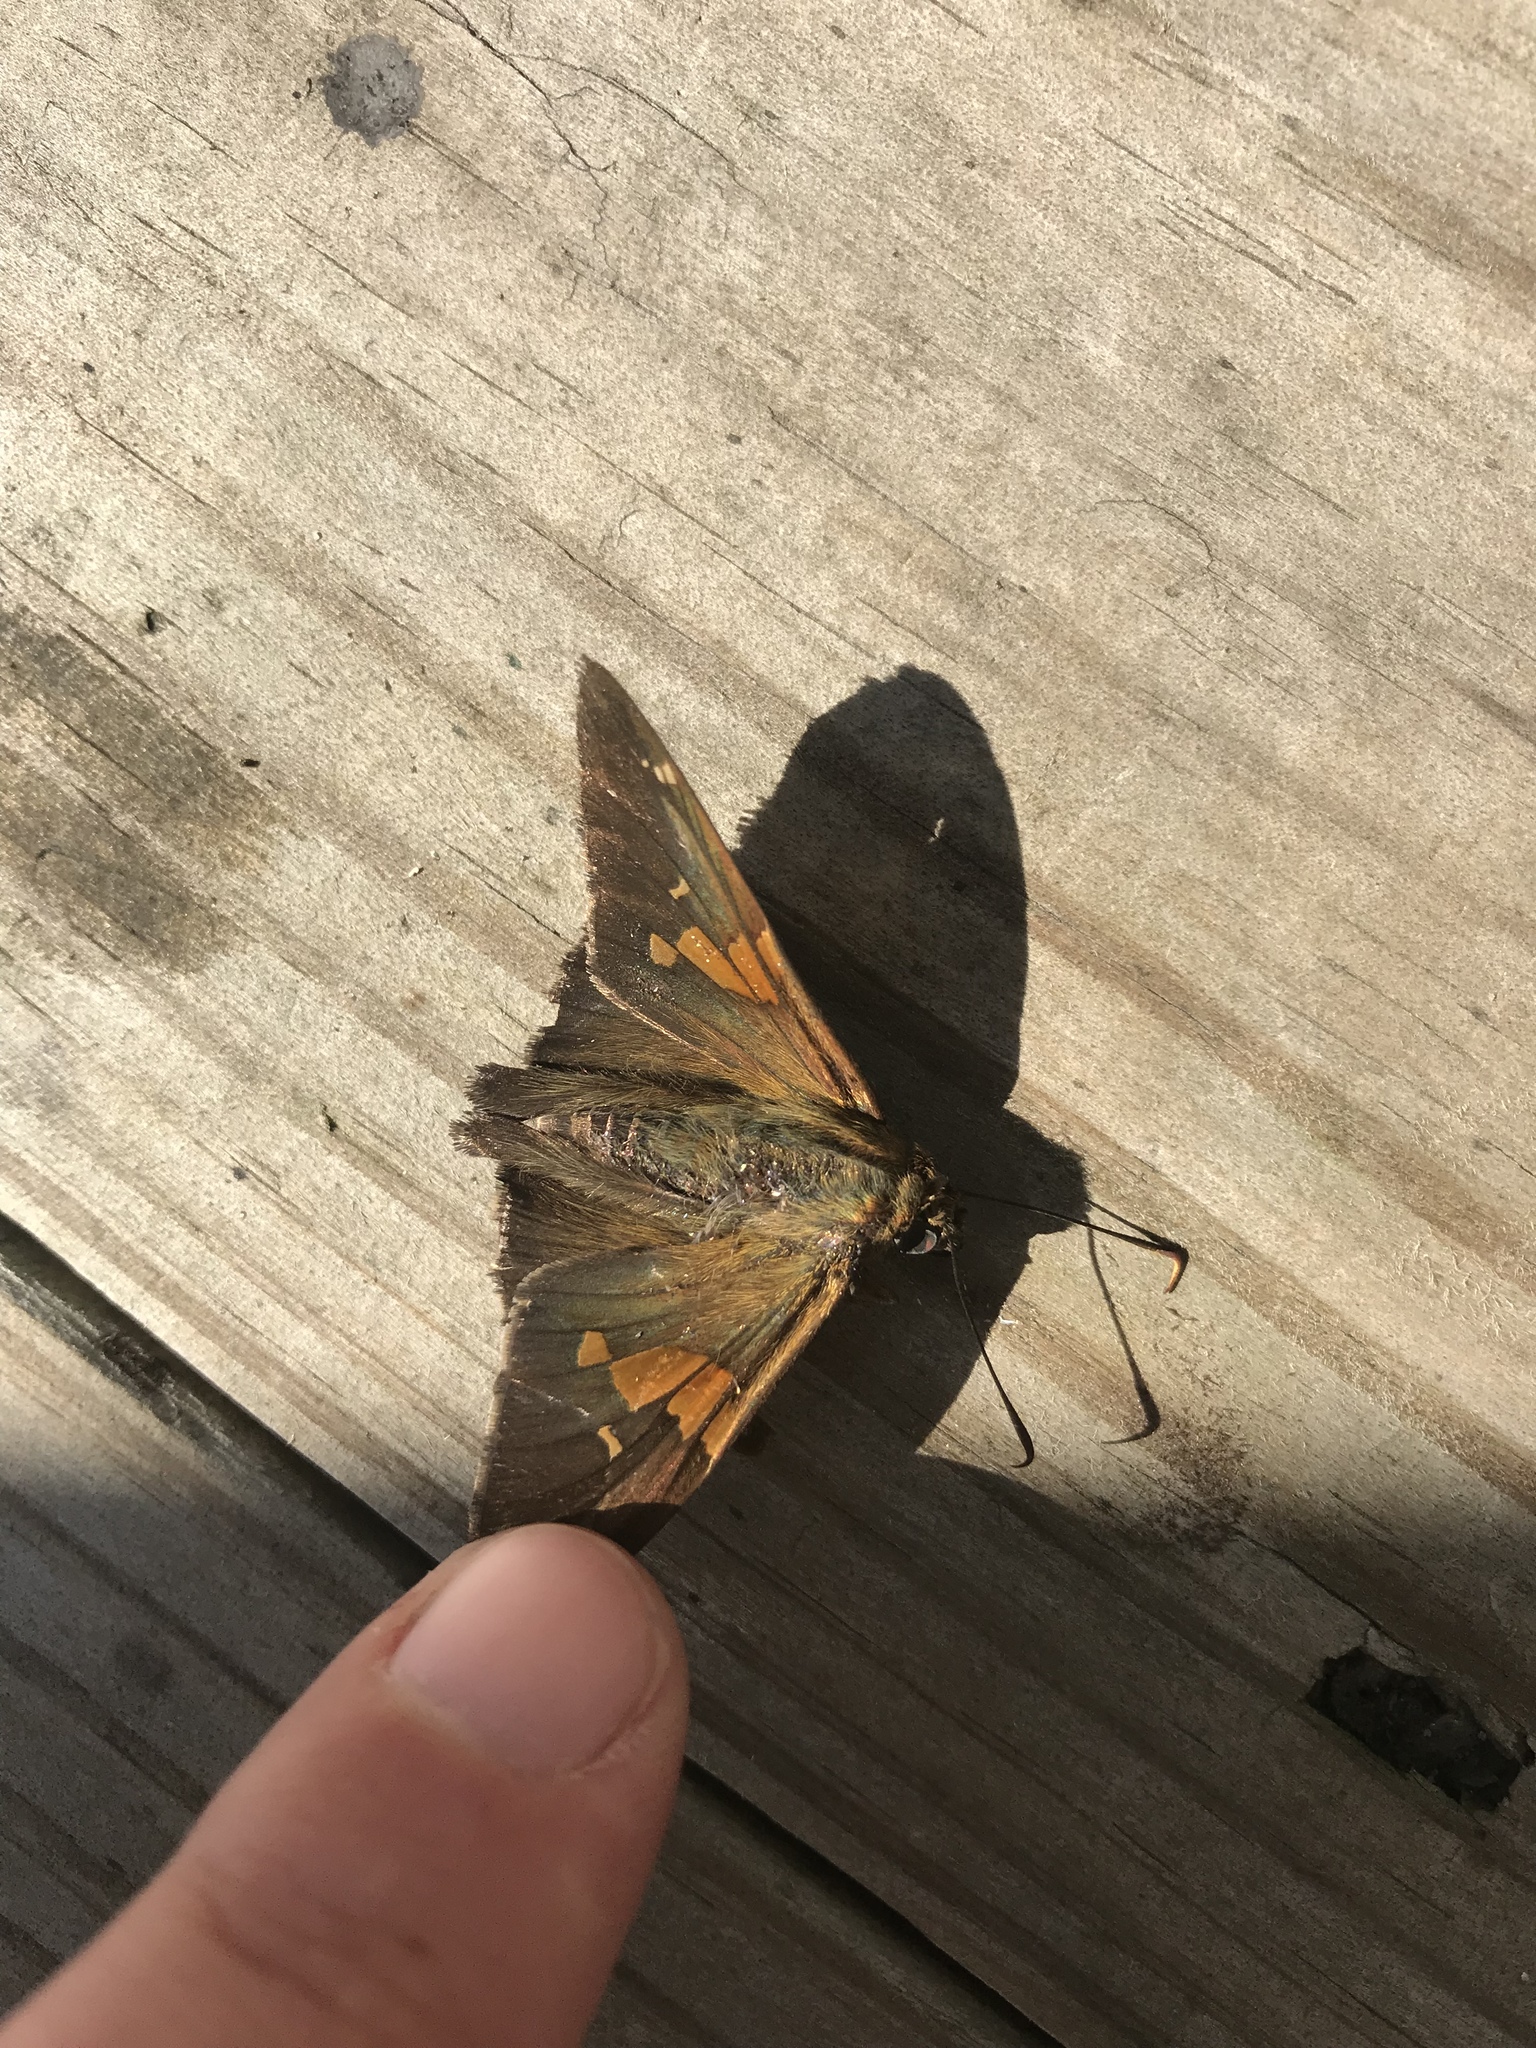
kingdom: Animalia
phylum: Arthropoda
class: Insecta
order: Lepidoptera
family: Hesperiidae
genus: Epargyreus
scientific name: Epargyreus clarus
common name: Silver-spotted skipper
